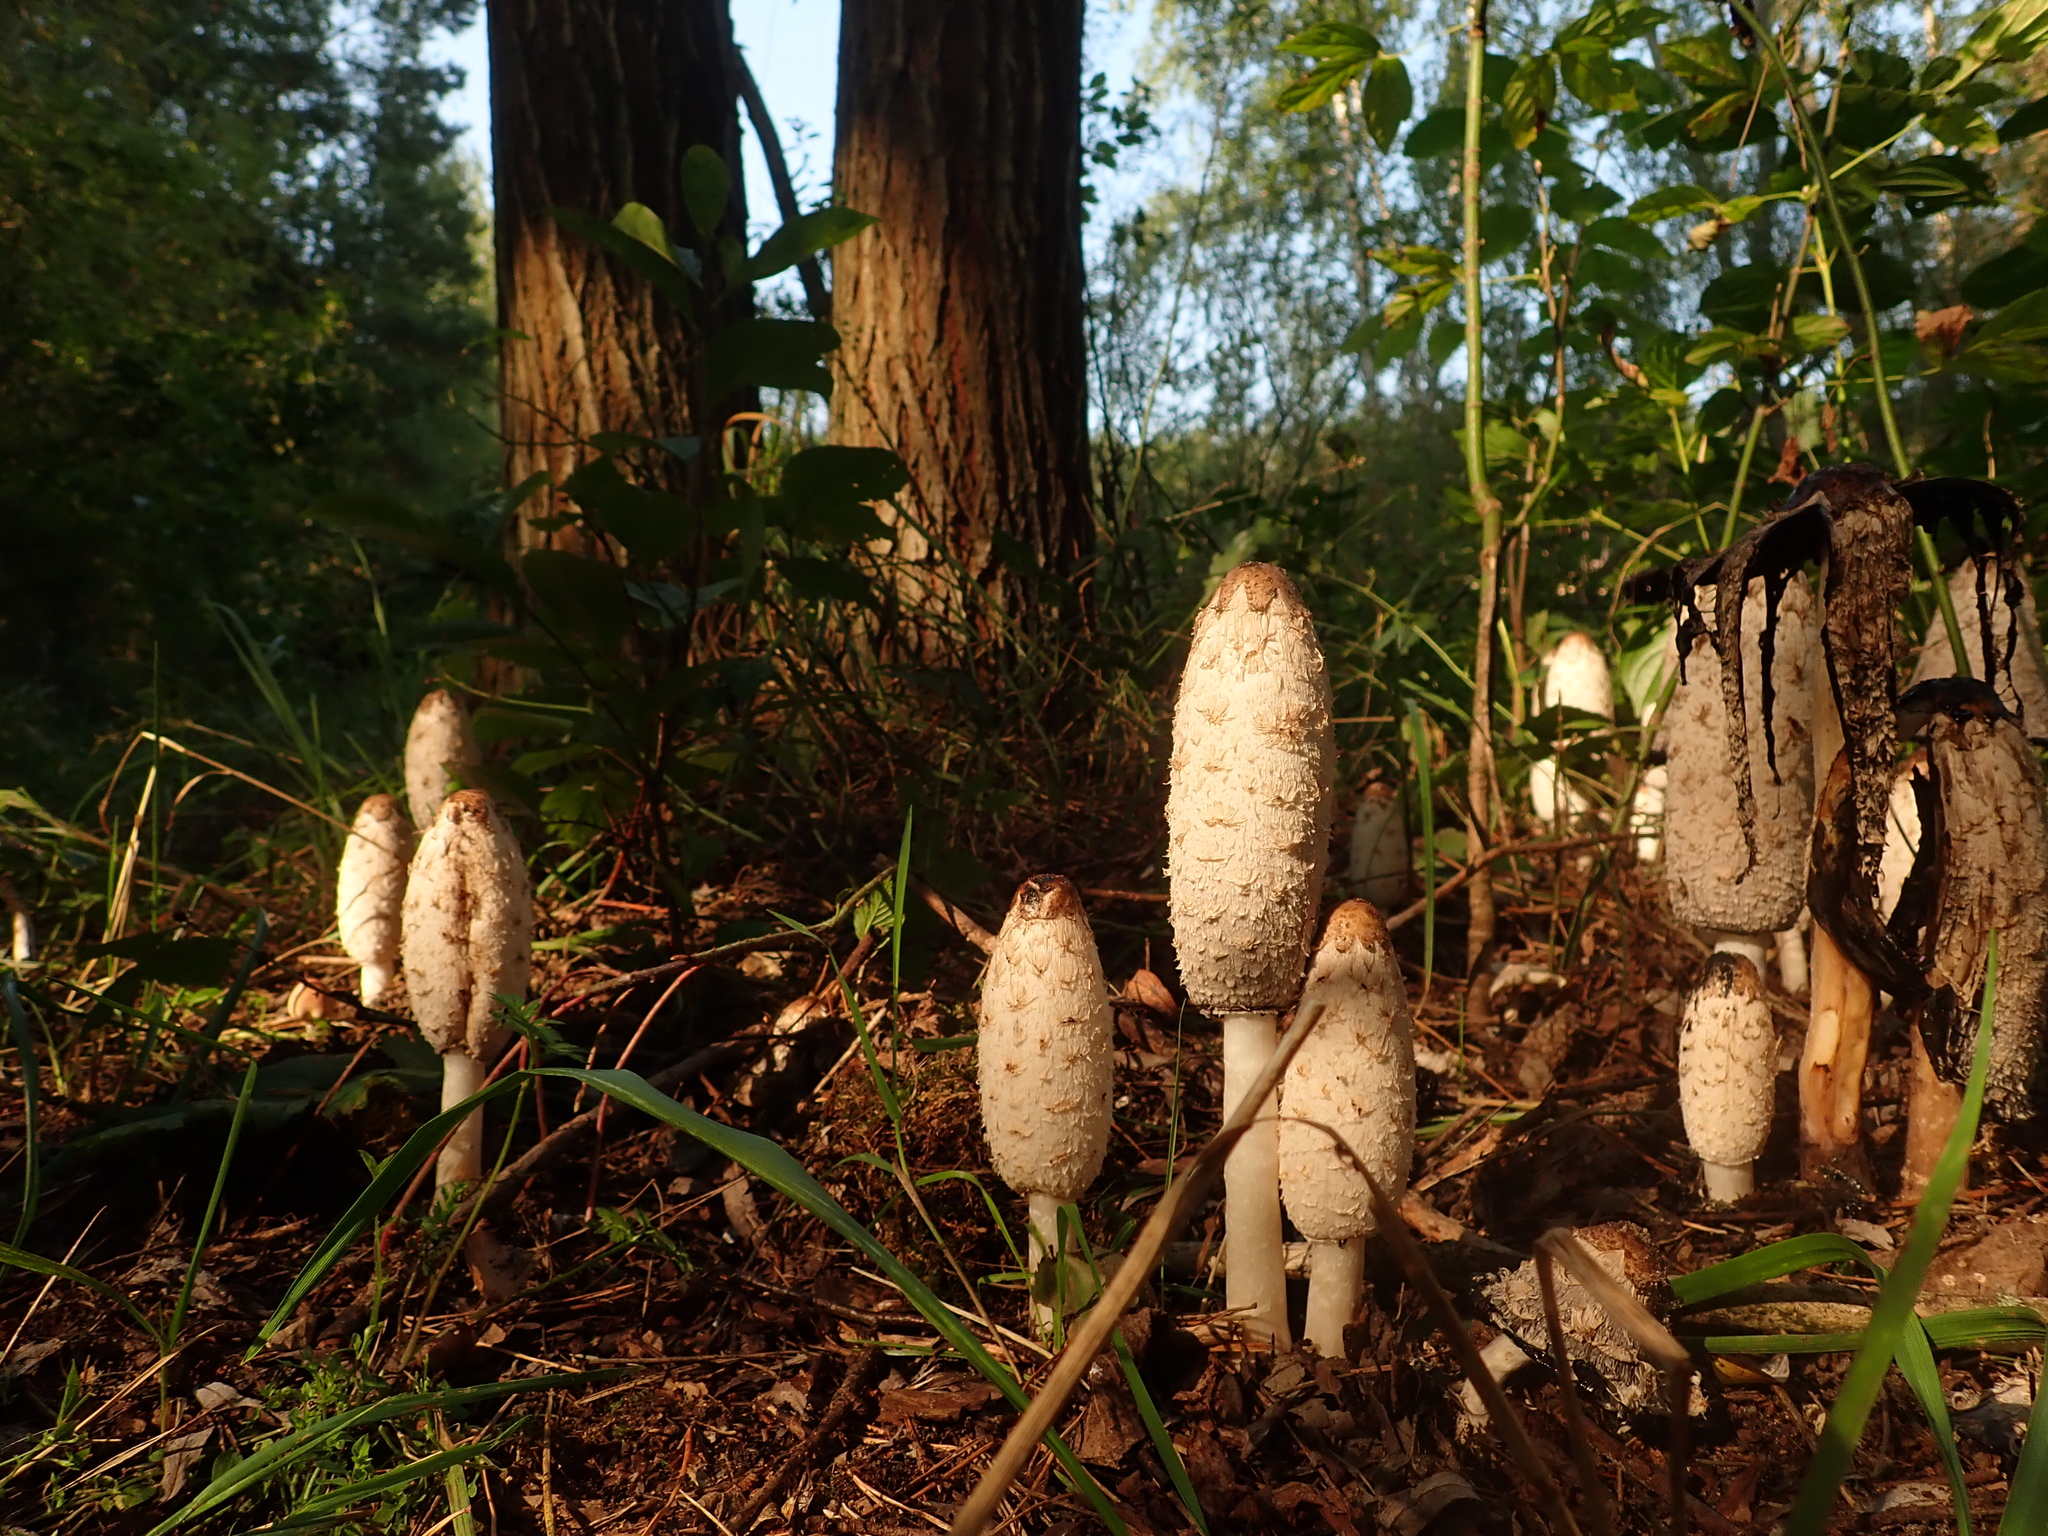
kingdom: Fungi
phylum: Basidiomycota
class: Agaricomycetes
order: Agaricales
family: Agaricaceae
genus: Coprinus
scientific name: Coprinus comatus
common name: Lawyer's wig
